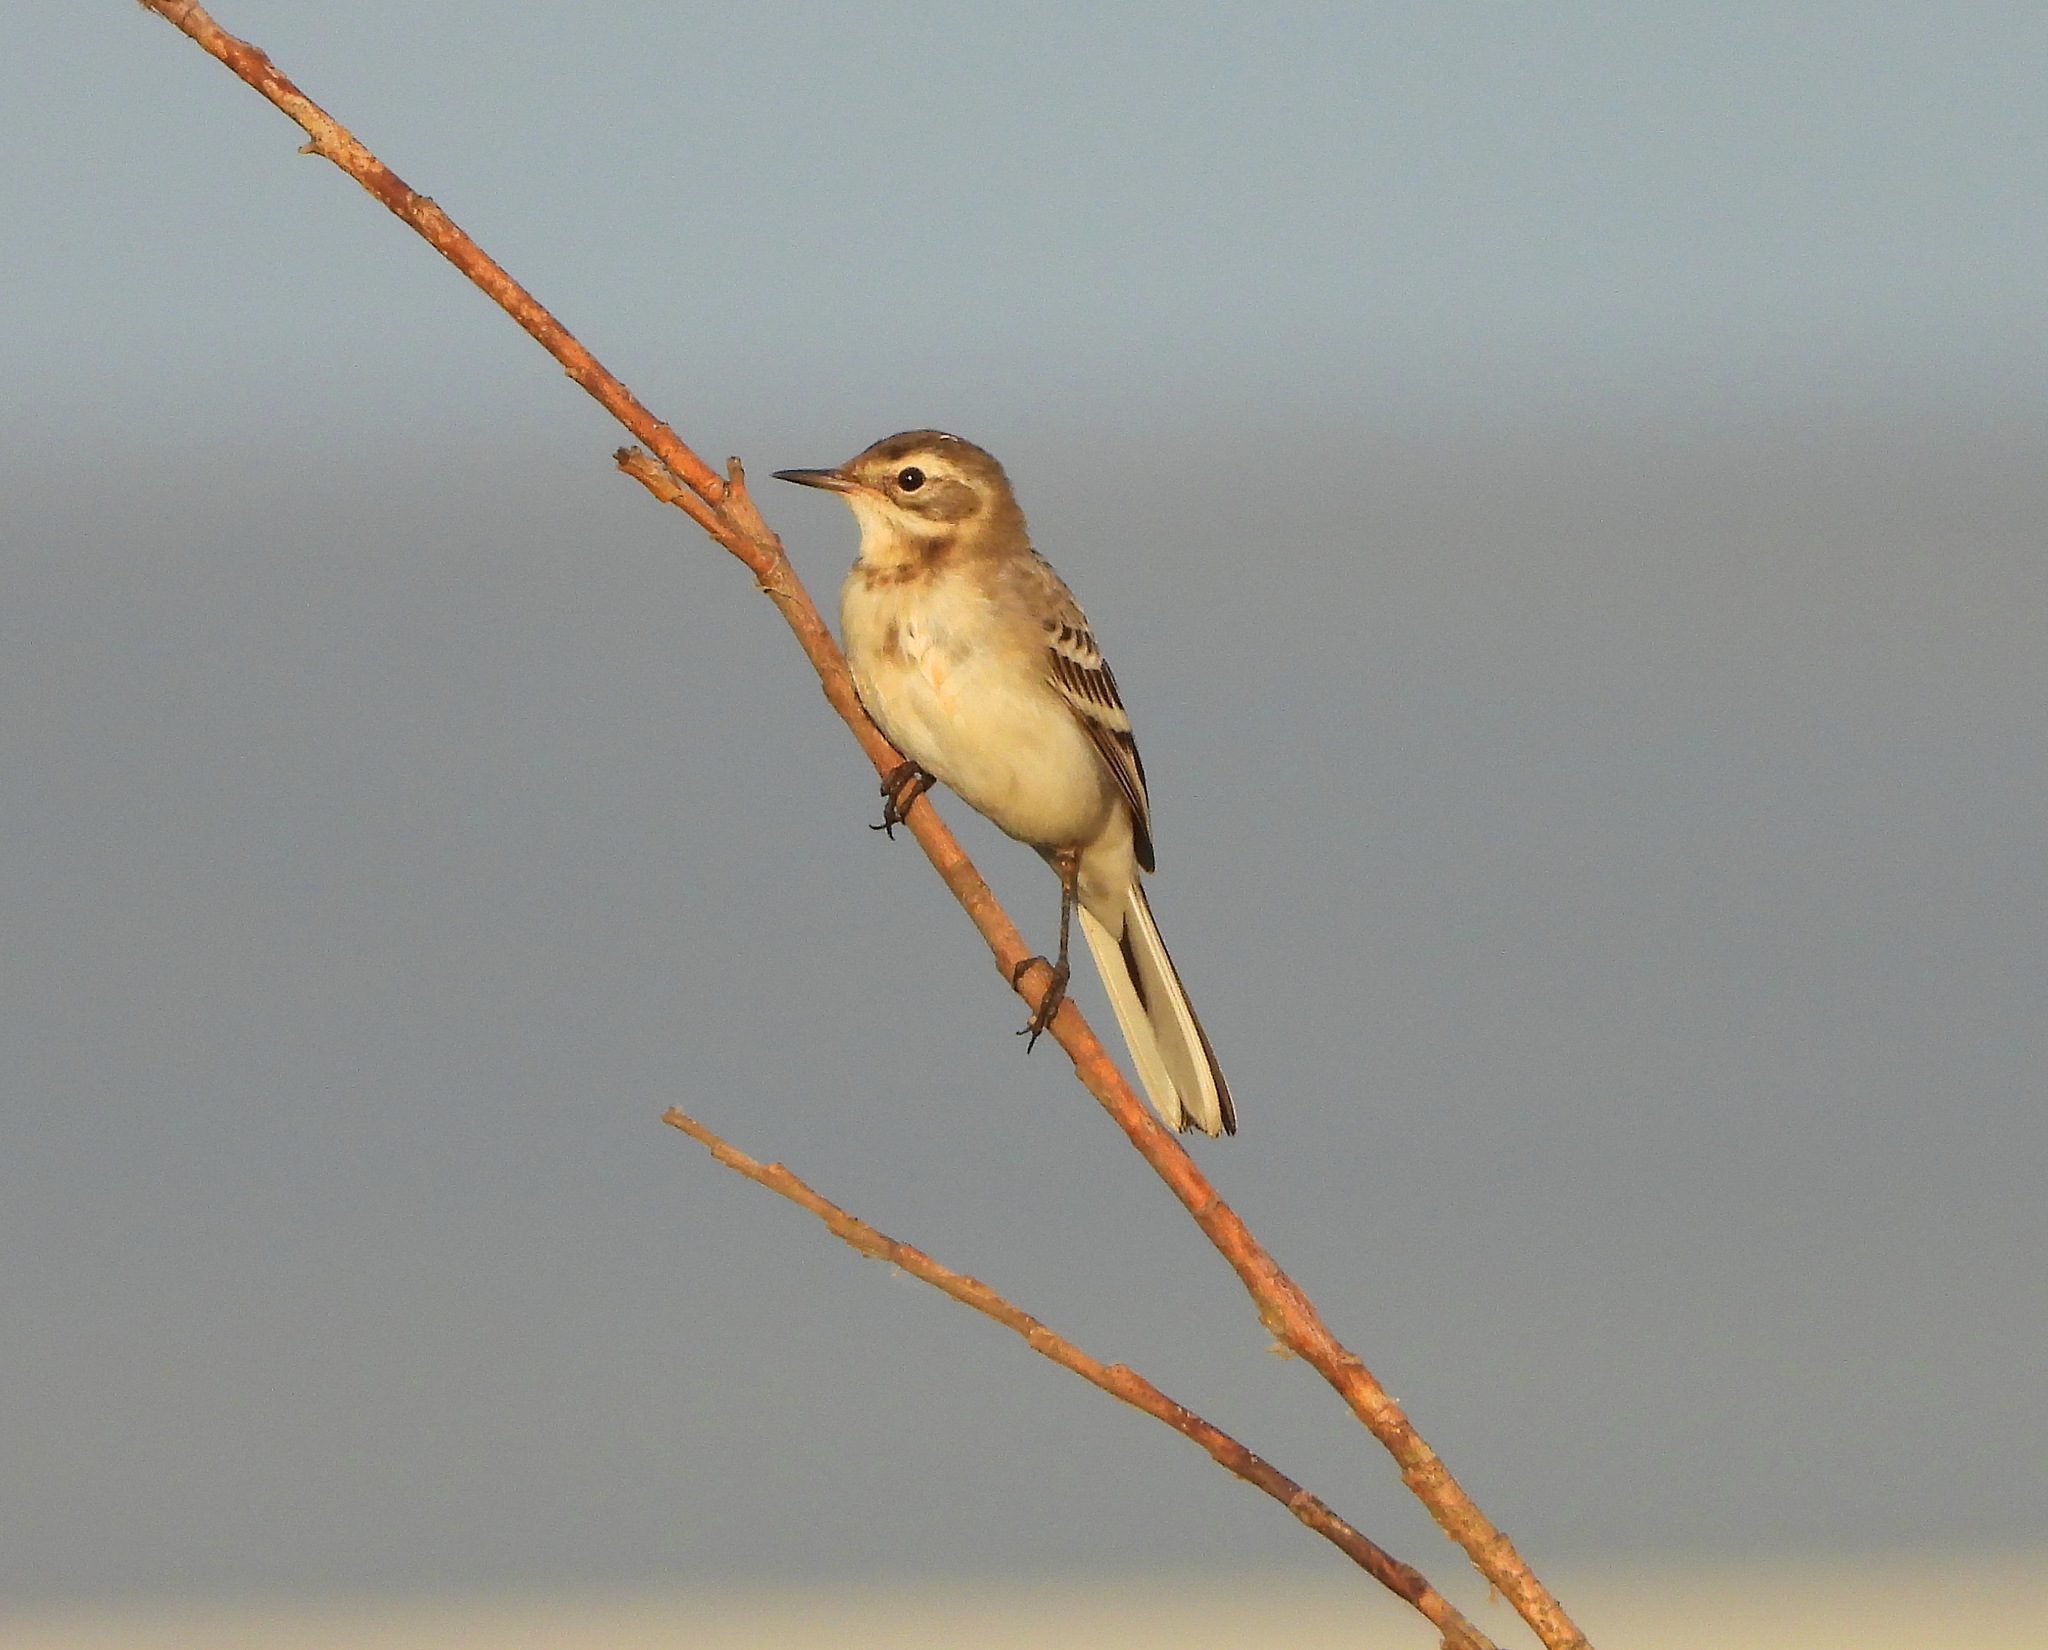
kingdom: Animalia
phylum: Chordata
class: Aves
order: Passeriformes
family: Motacillidae
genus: Motacilla
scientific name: Motacilla citreola
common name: Citrine wagtail
